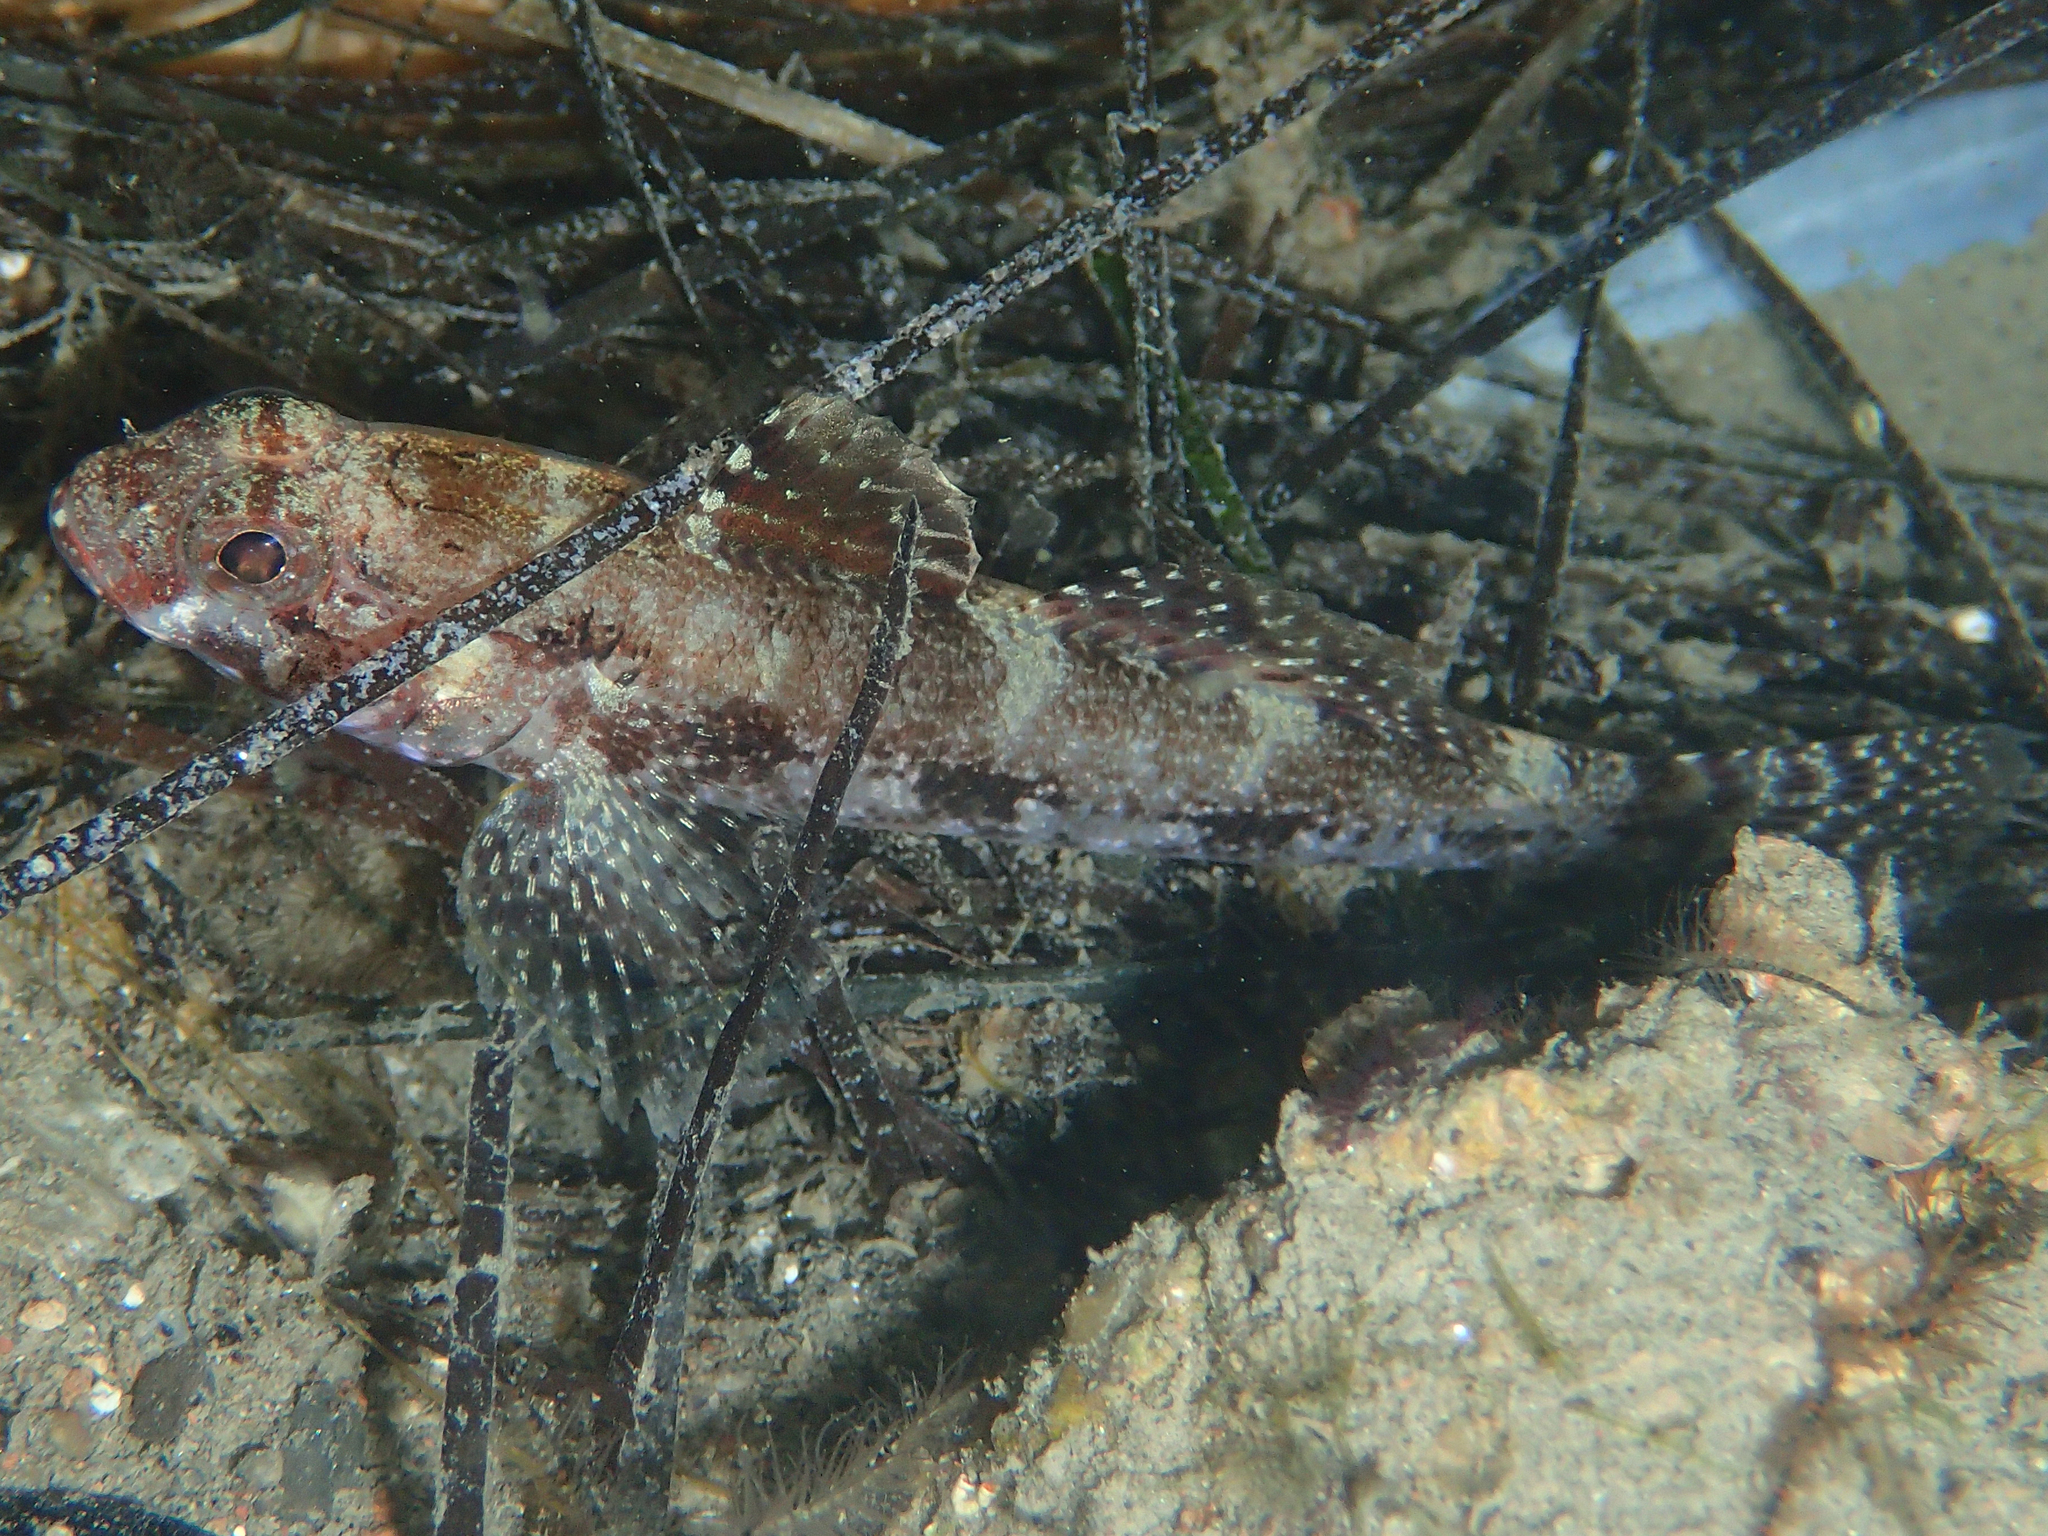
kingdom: Animalia
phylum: Chordata
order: Perciformes
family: Gobiidae
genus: Gobius
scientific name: Gobius cruentatus
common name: Red-mouthed goby
